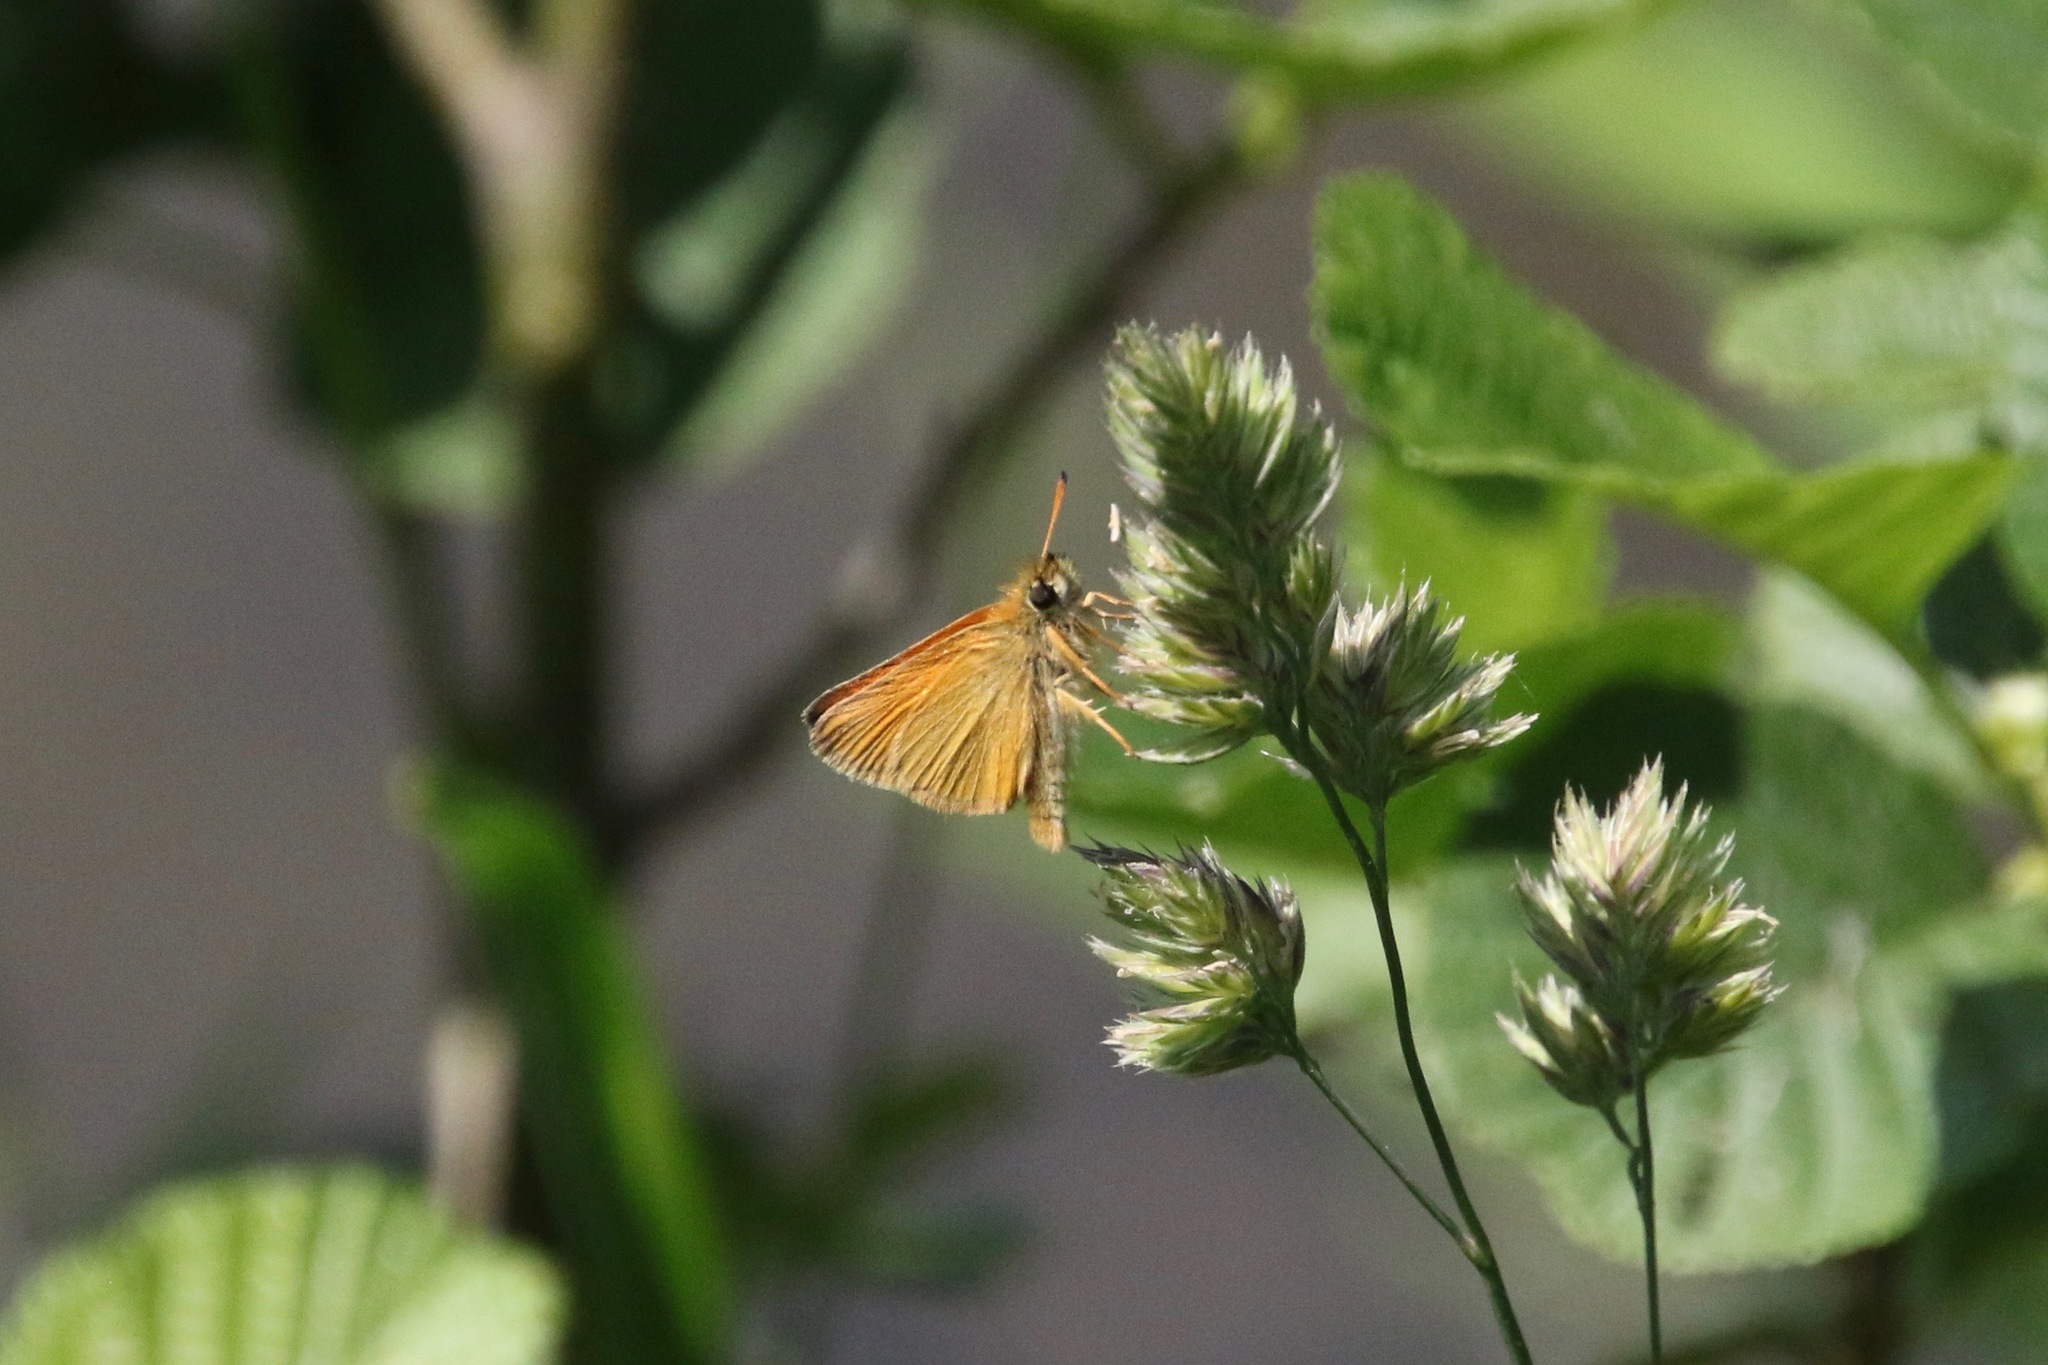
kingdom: Animalia
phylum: Arthropoda
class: Insecta
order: Lepidoptera
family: Hesperiidae
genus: Thymelicus
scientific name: Thymelicus lineola
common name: Essex skipper
